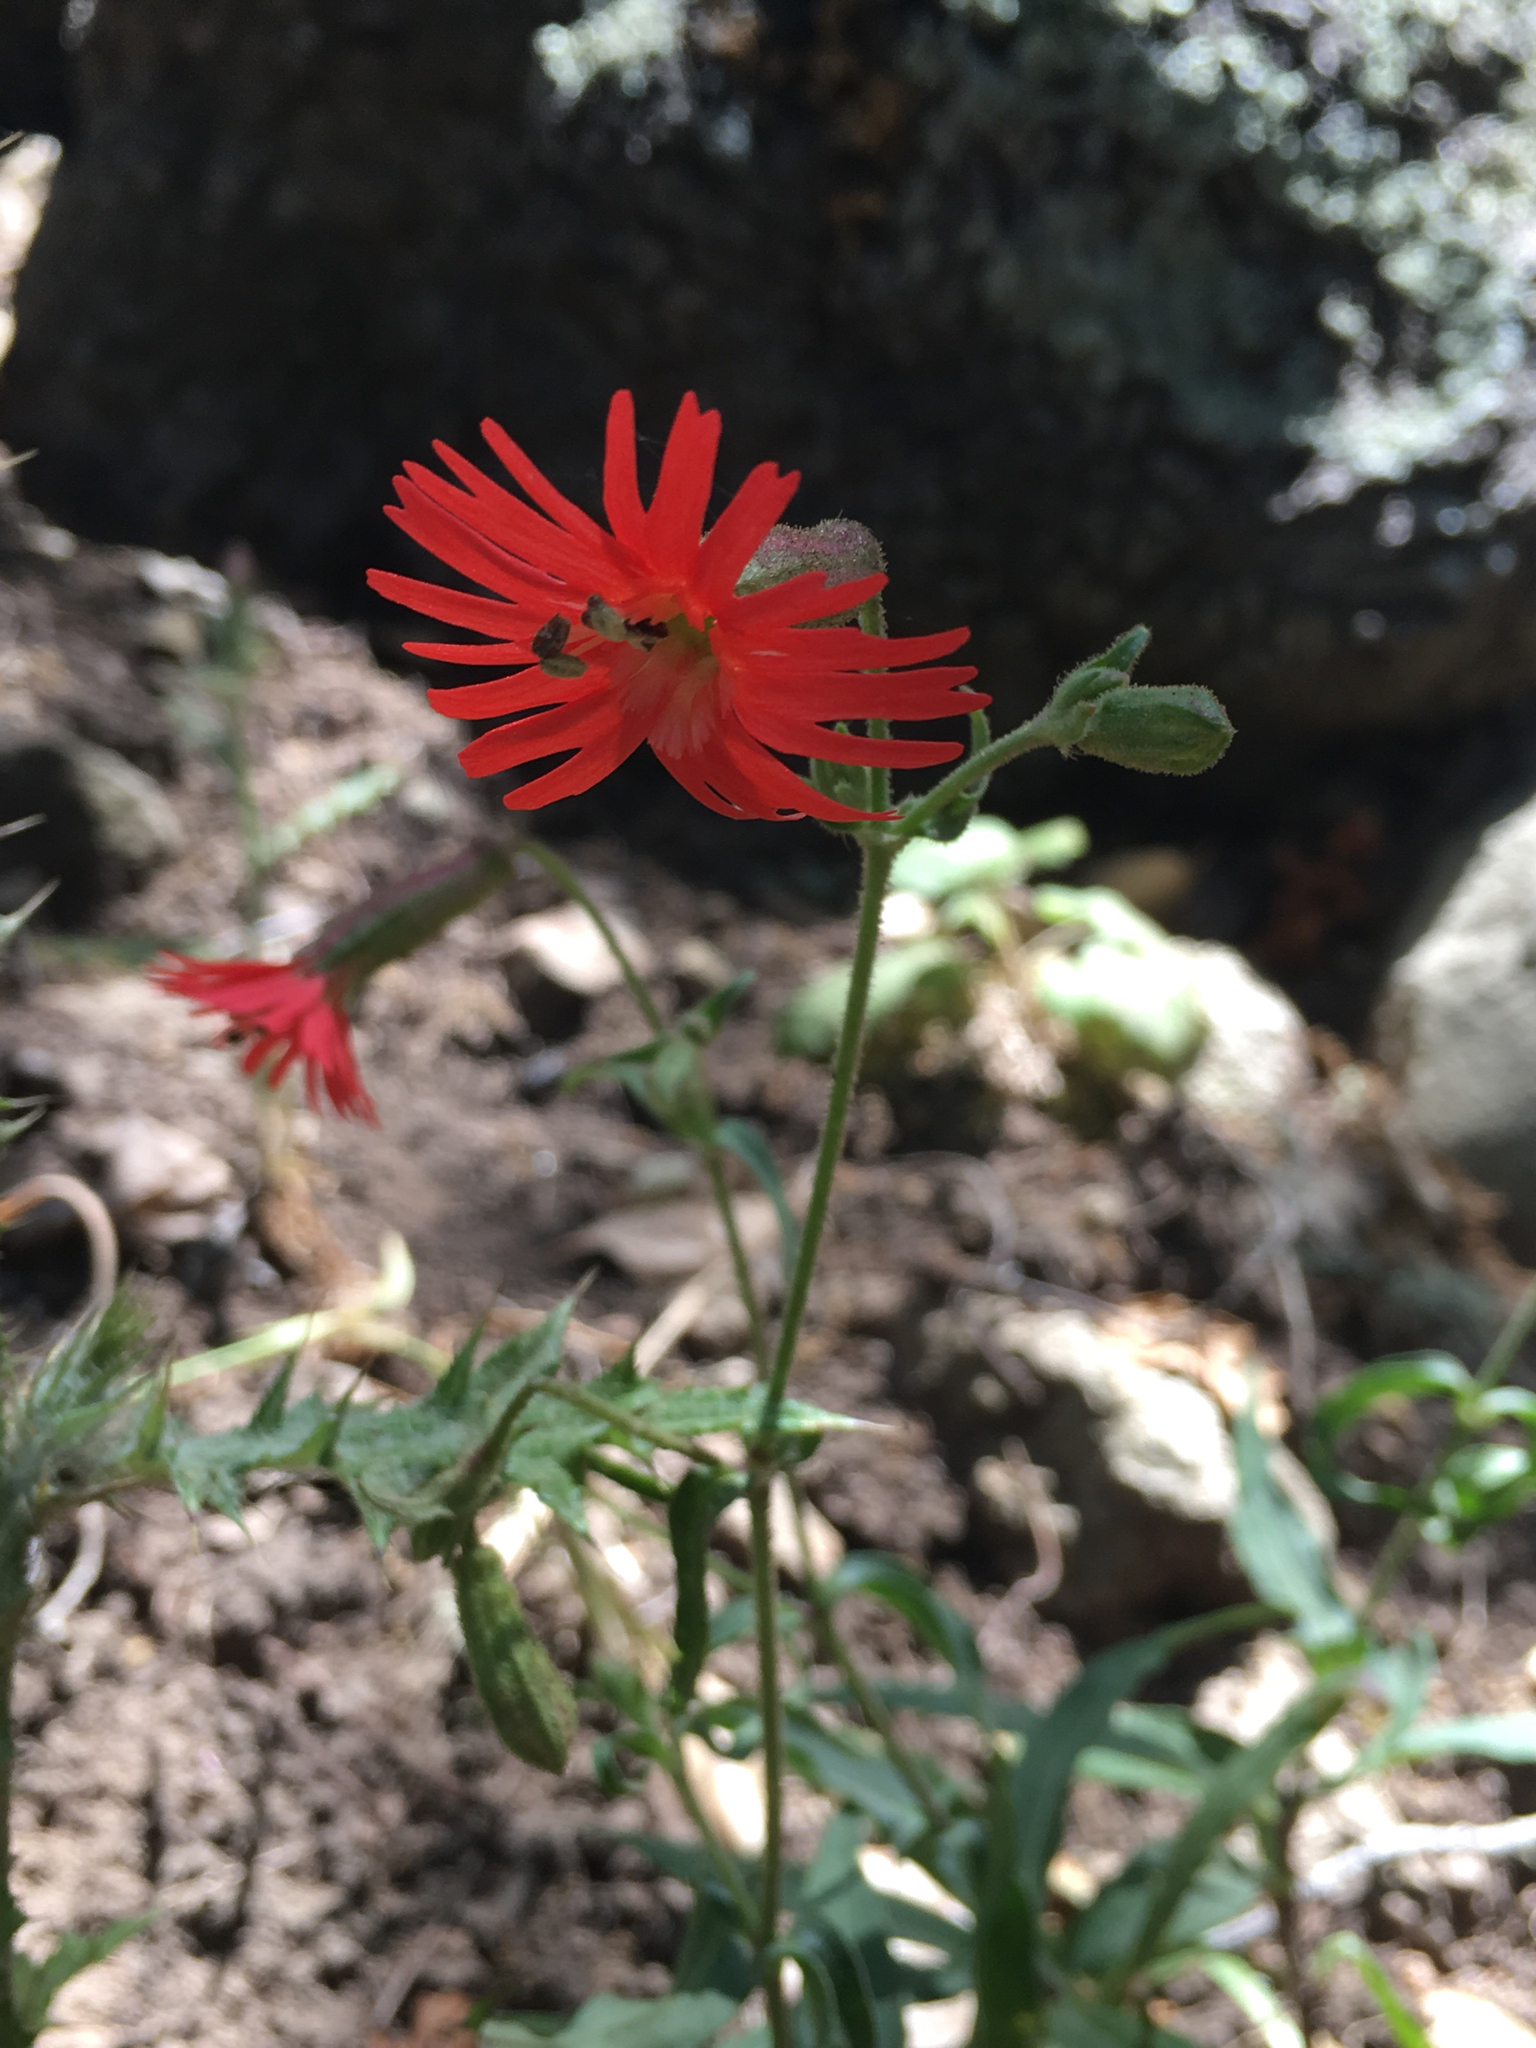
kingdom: Plantae
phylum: Tracheophyta
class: Magnoliopsida
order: Caryophyllales
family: Caryophyllaceae
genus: Silene
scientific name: Silene laciniata
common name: Indian-pink
